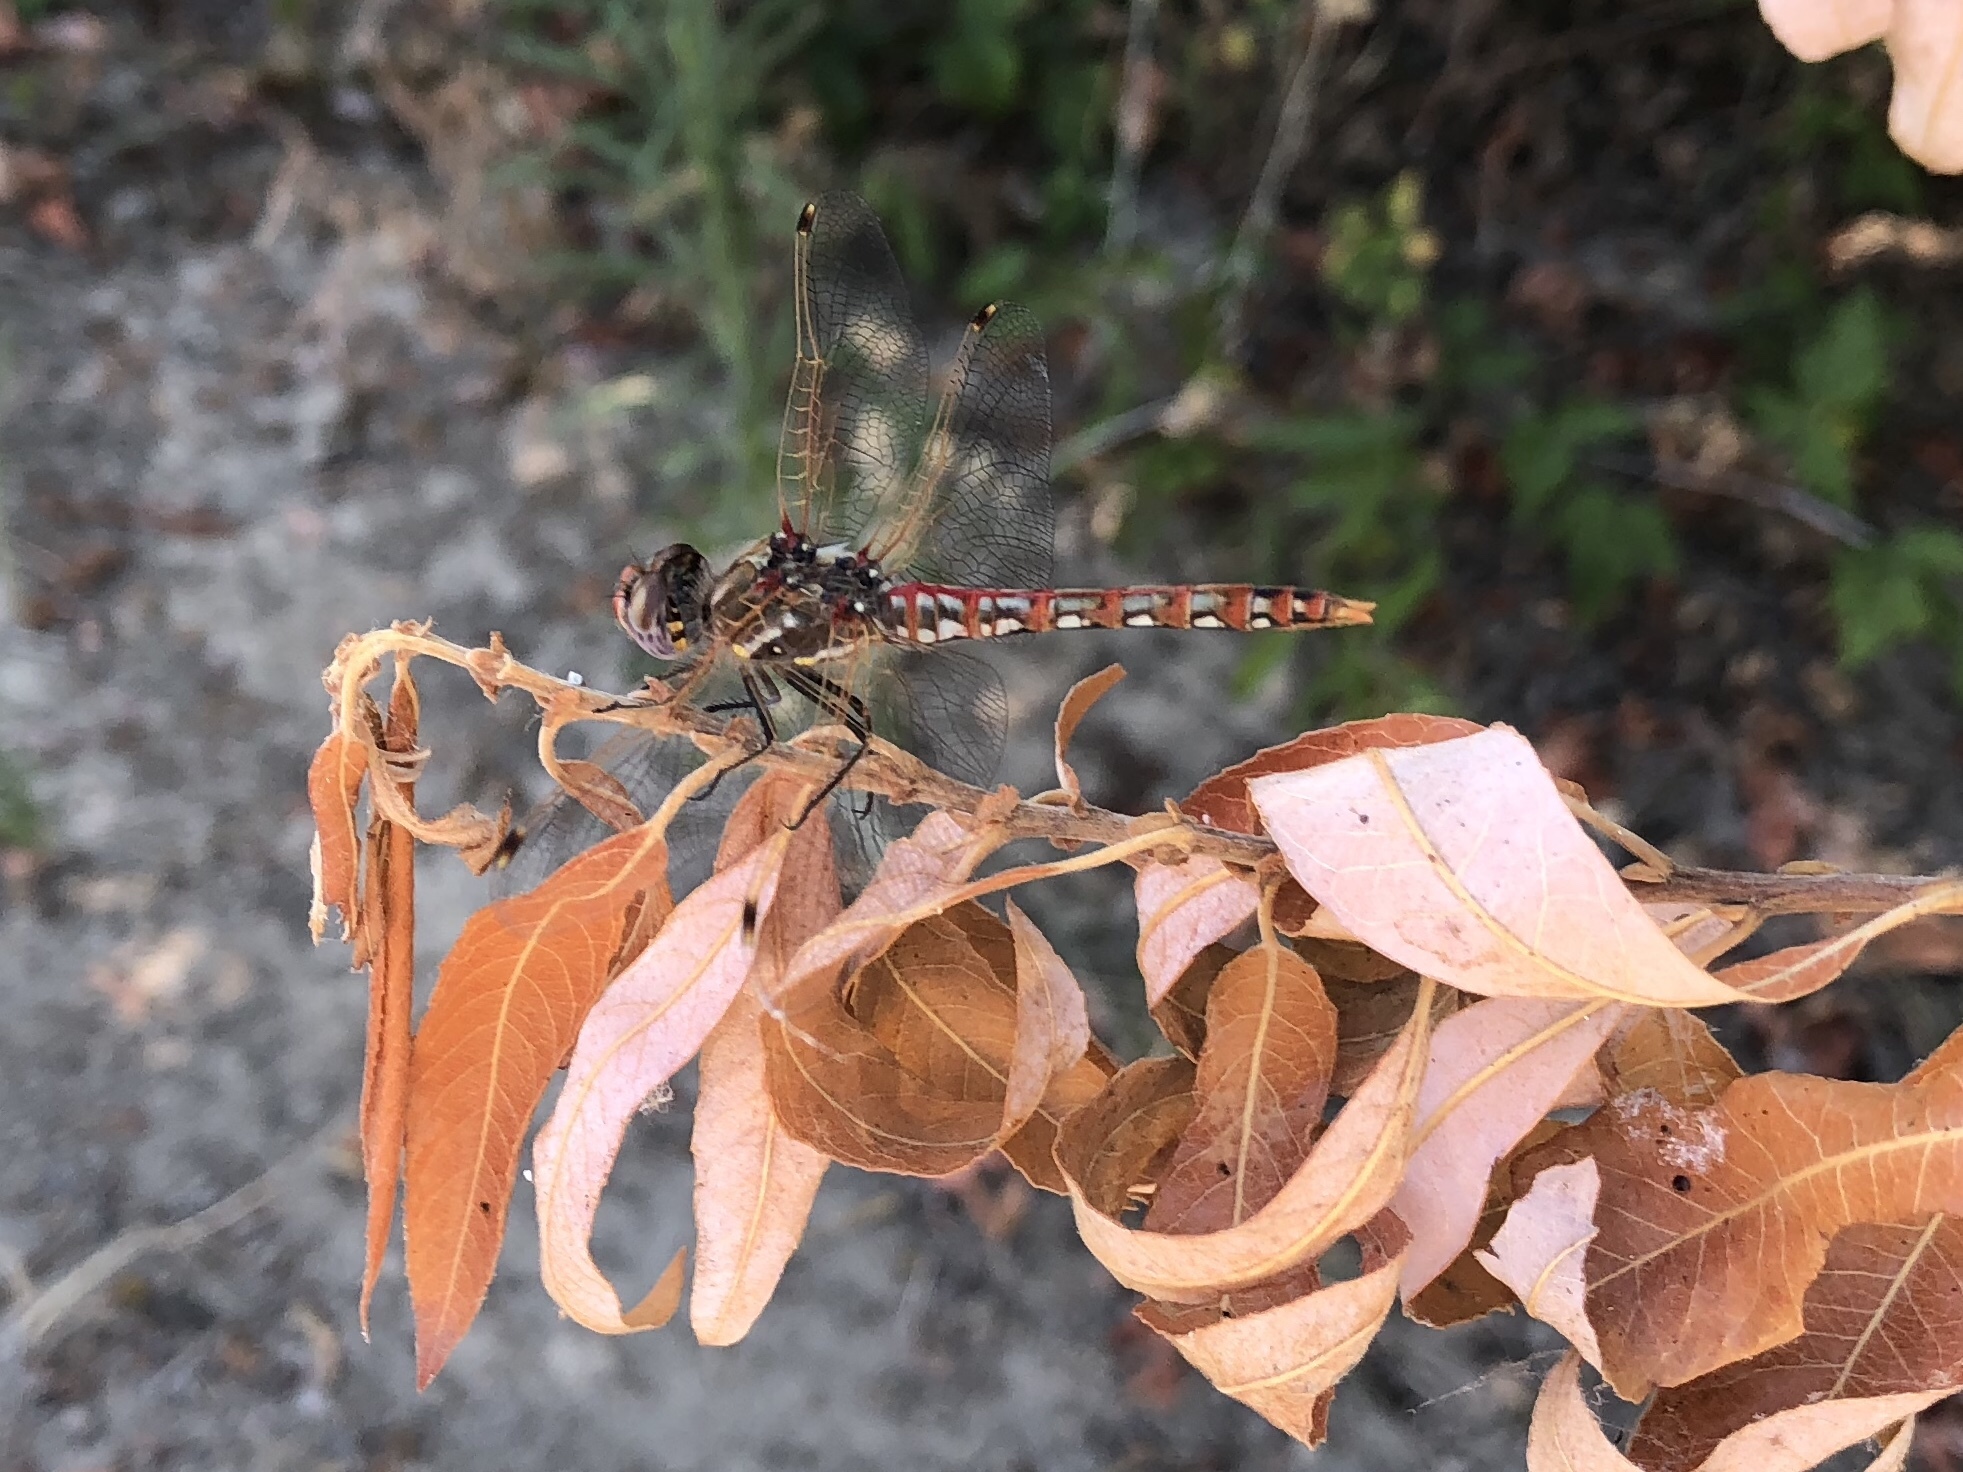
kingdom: Animalia
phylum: Arthropoda
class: Insecta
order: Odonata
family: Libellulidae
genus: Sympetrum
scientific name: Sympetrum corruptum
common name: Variegated meadowhawk
